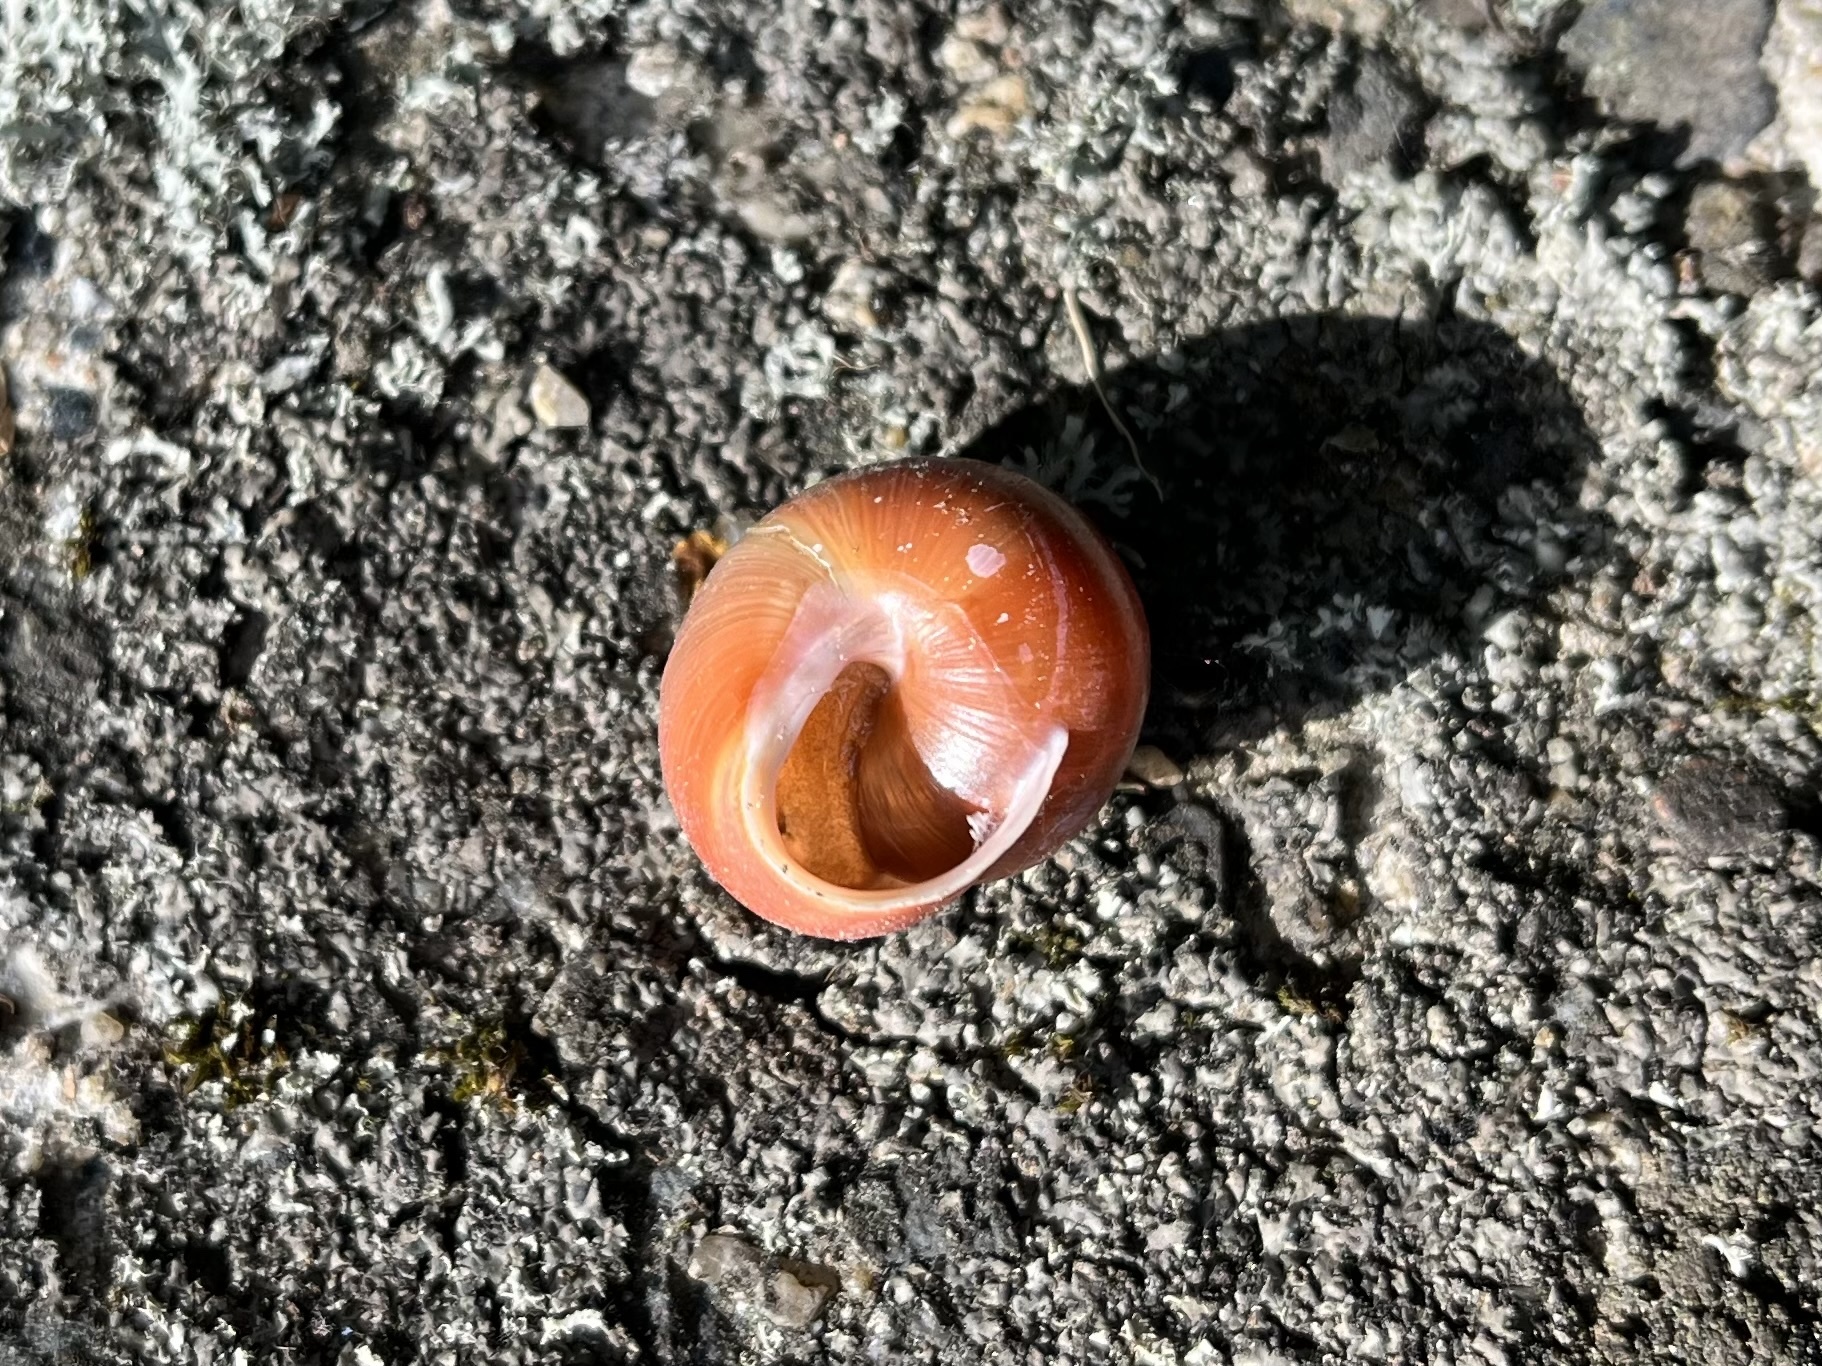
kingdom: Animalia
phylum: Mollusca
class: Gastropoda
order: Stylommatophora
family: Helicidae
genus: Cepaea
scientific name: Cepaea hortensis
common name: White-lip gardensnail
